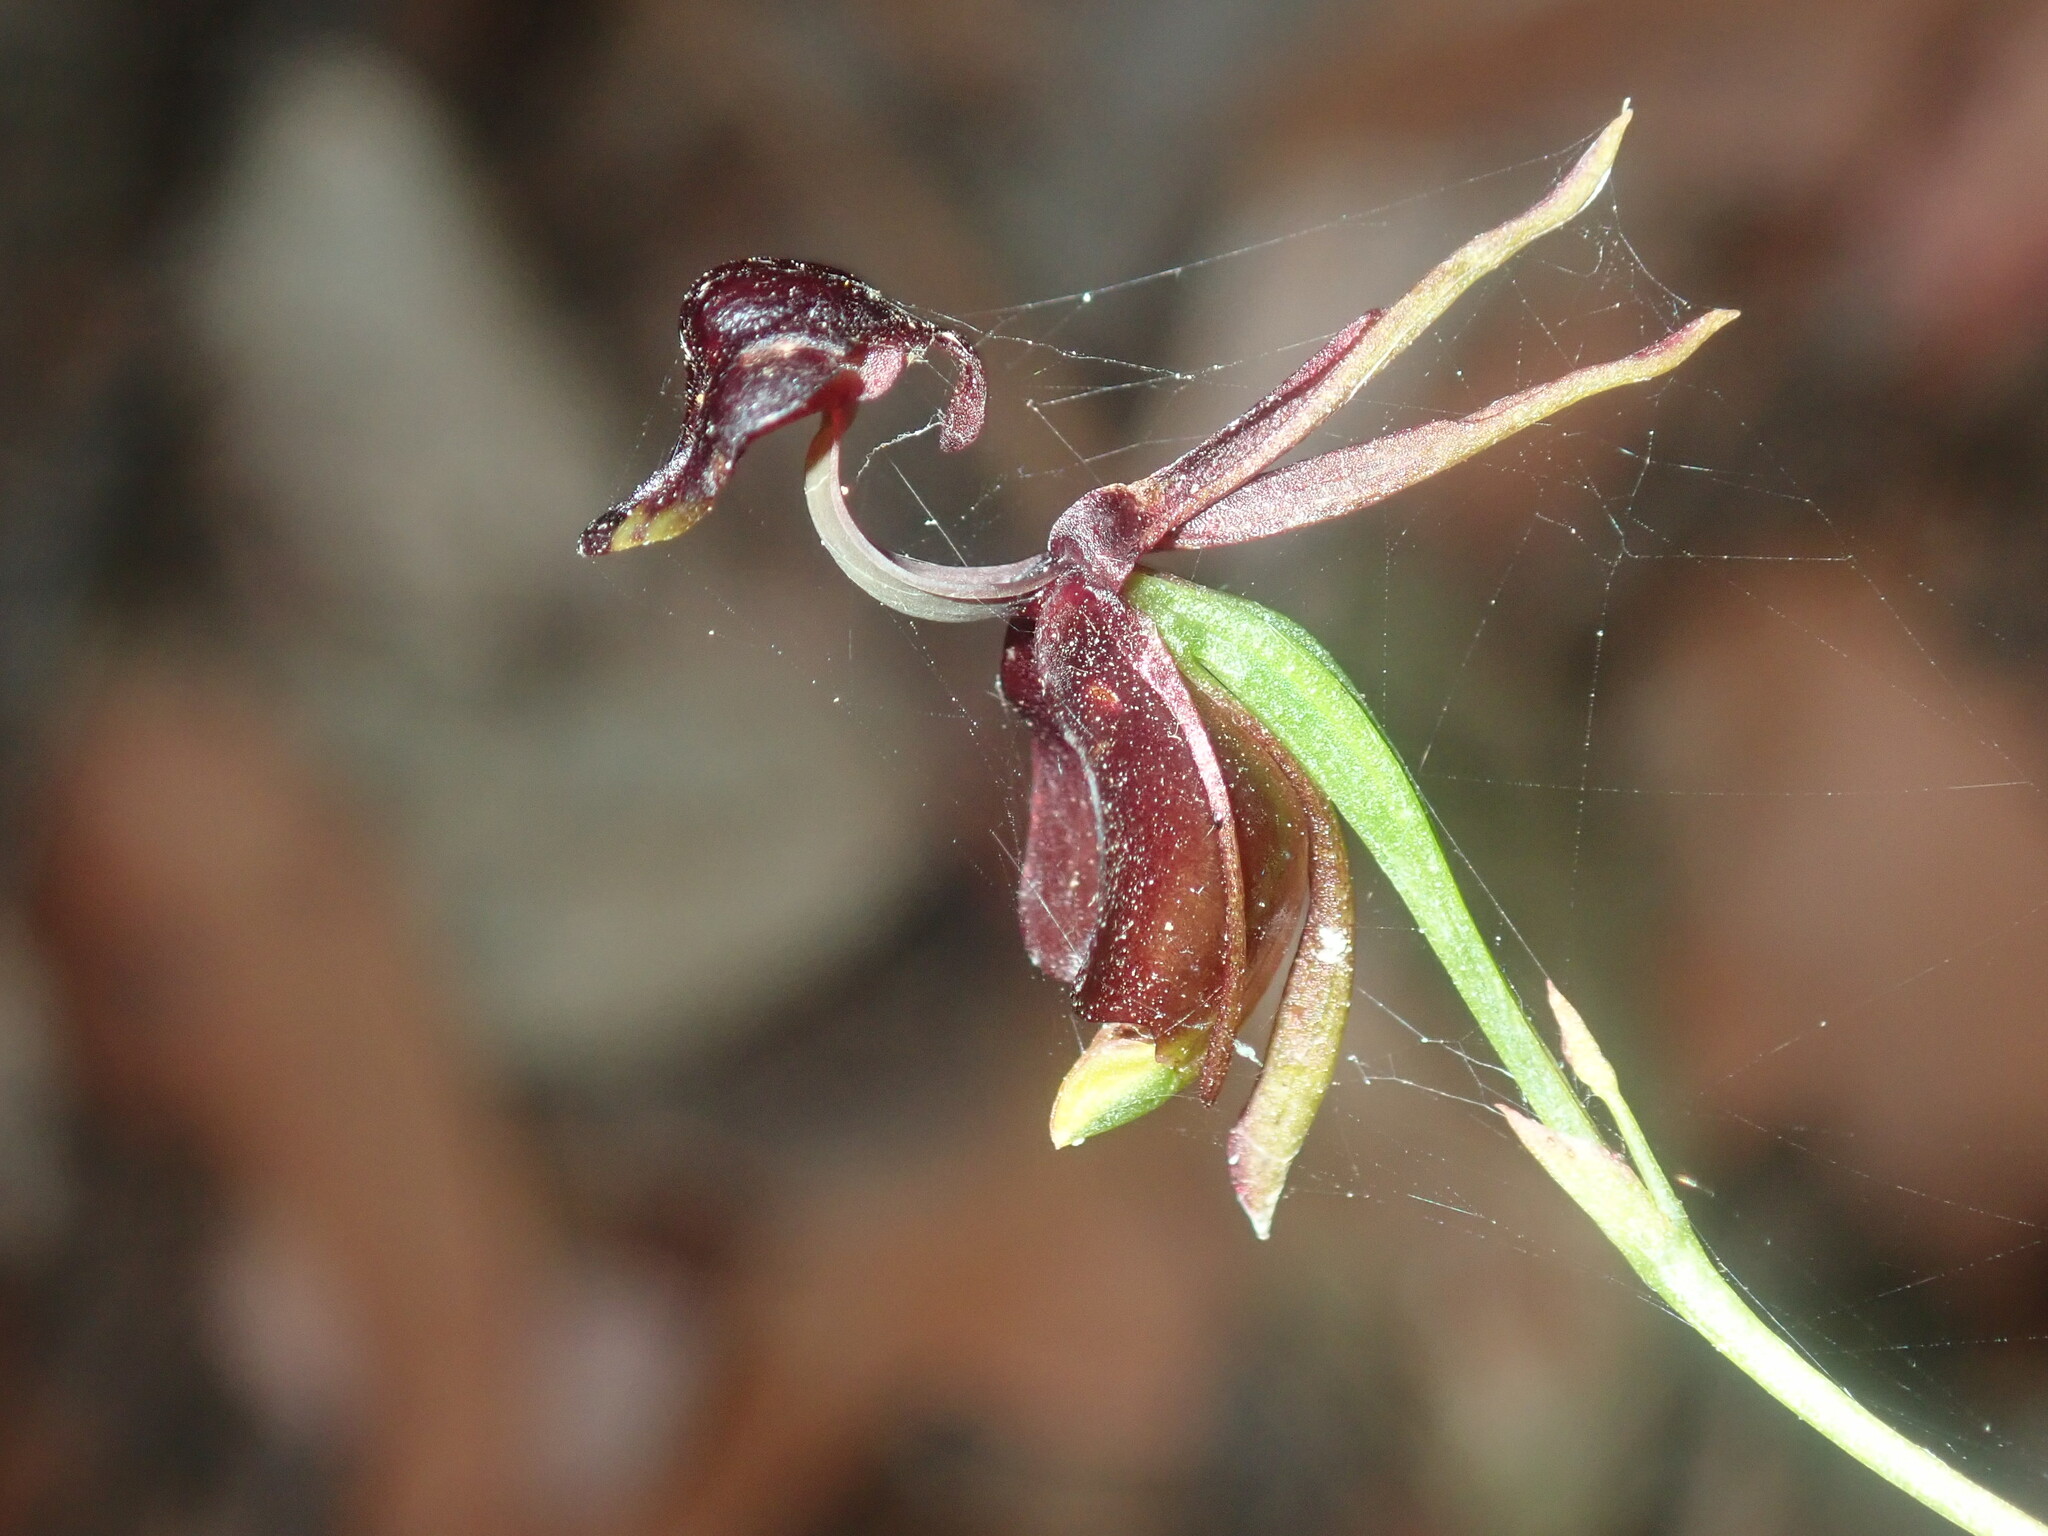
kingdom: Plantae
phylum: Tracheophyta
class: Liliopsida
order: Asparagales
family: Orchidaceae
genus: Caleana
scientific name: Caleana major
